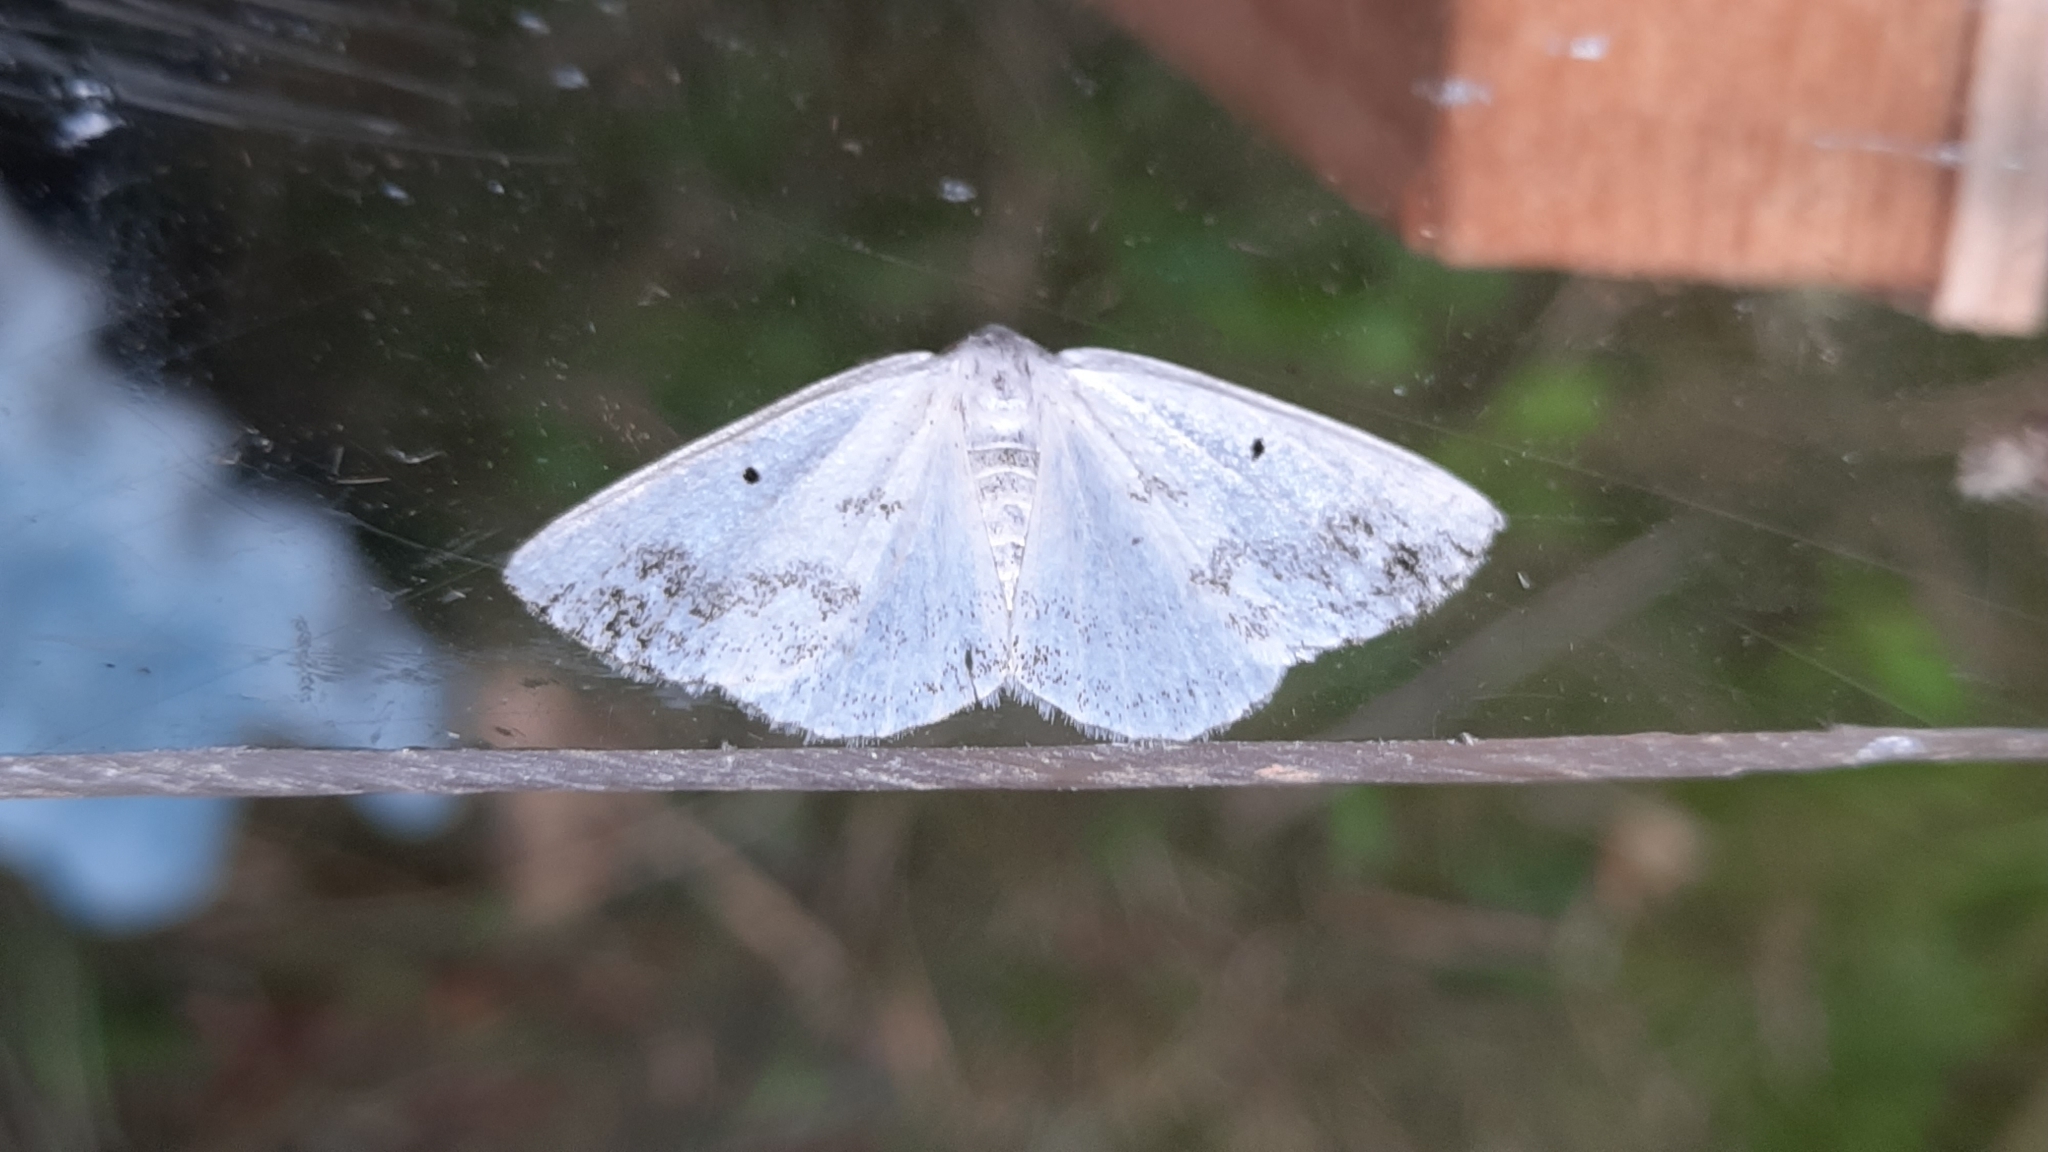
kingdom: Animalia
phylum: Arthropoda
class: Insecta
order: Lepidoptera
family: Geometridae
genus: Lomographa
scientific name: Lomographa temerata
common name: Clouded silver
